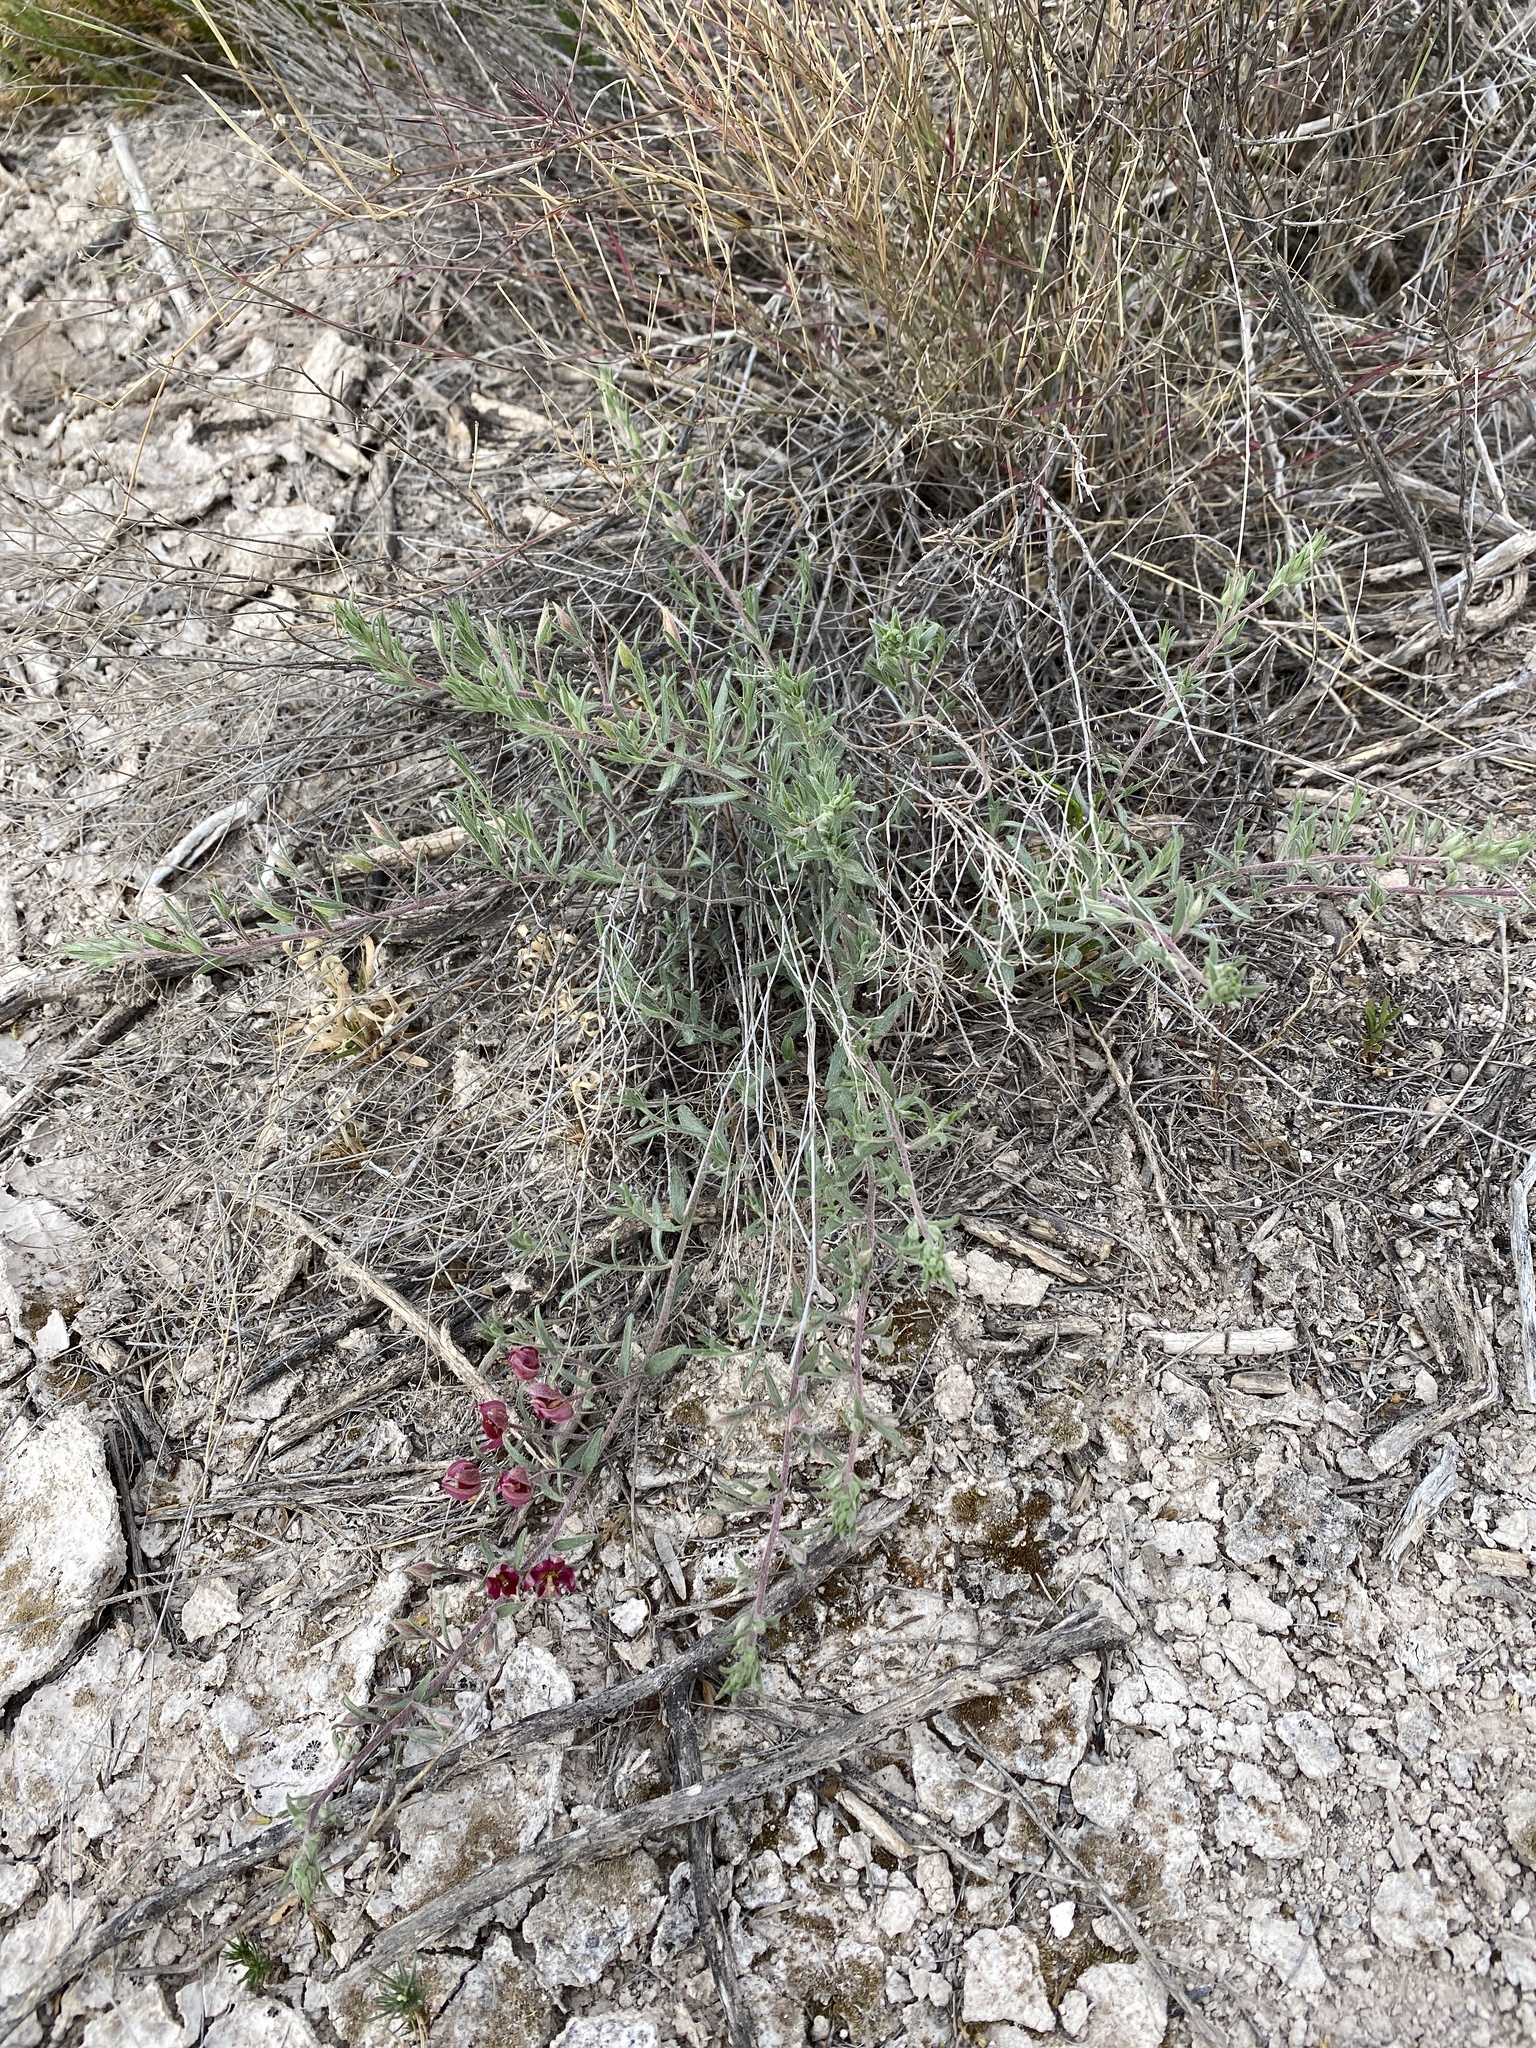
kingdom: Plantae
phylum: Tracheophyta
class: Magnoliopsida
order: Zygophyllales
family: Krameriaceae
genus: Krameria
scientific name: Krameria lanceolata
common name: Ratany
